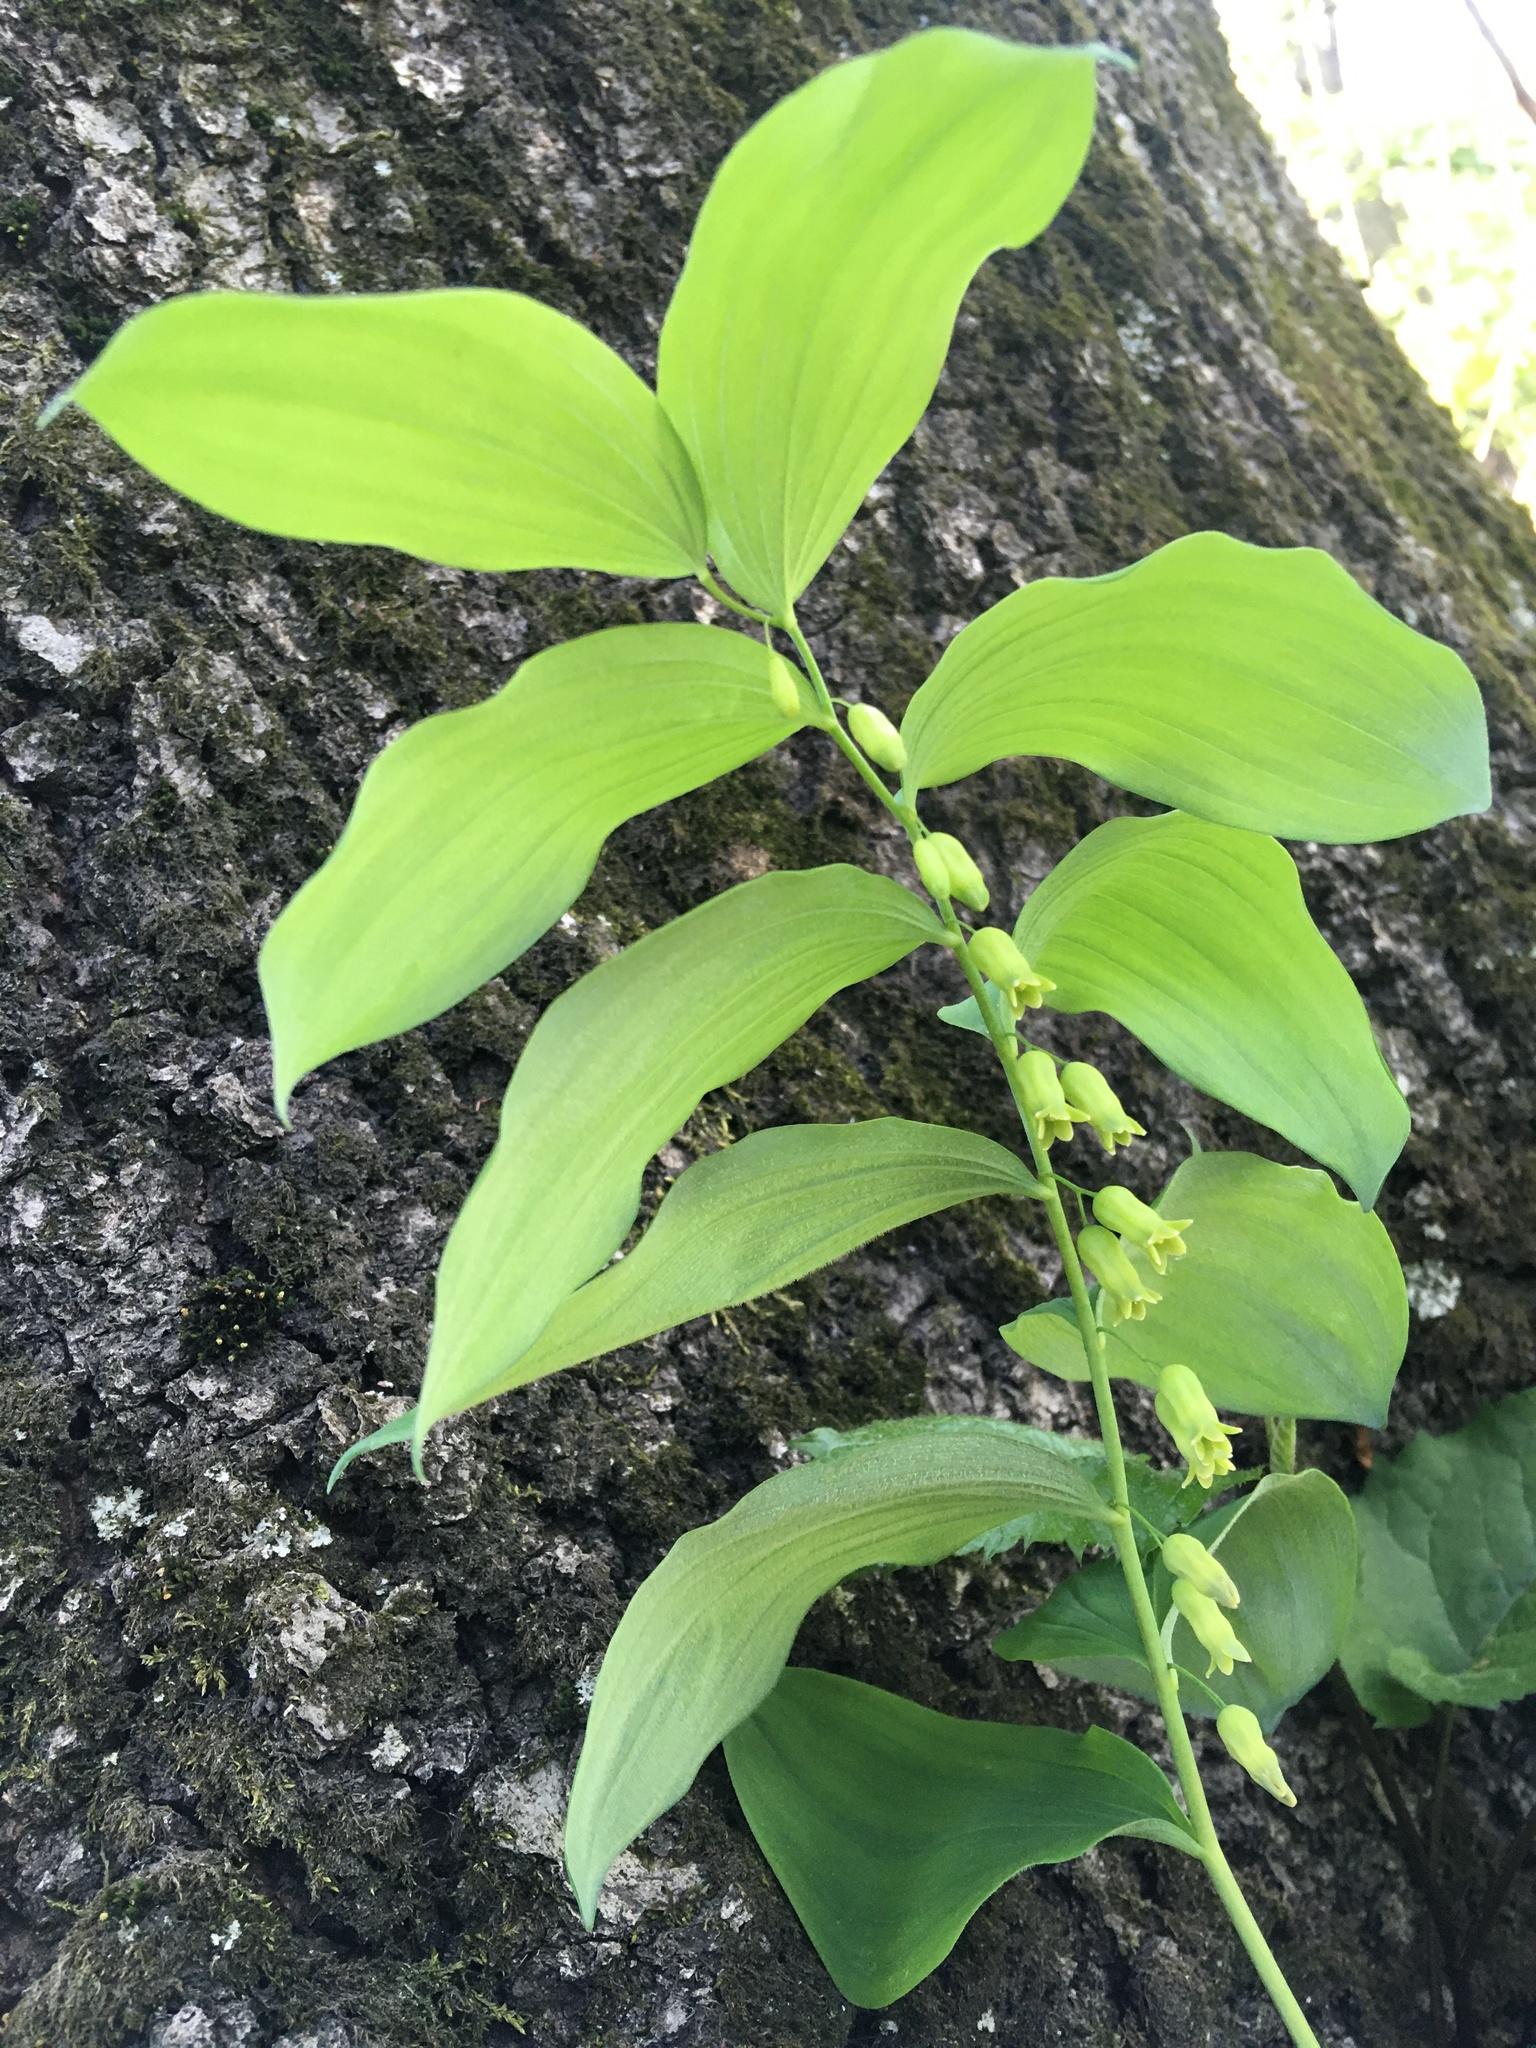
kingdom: Plantae
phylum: Tracheophyta
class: Liliopsida
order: Asparagales
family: Asparagaceae
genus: Polygonatum
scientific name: Polygonatum pubescens
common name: Downy solomon's seal
